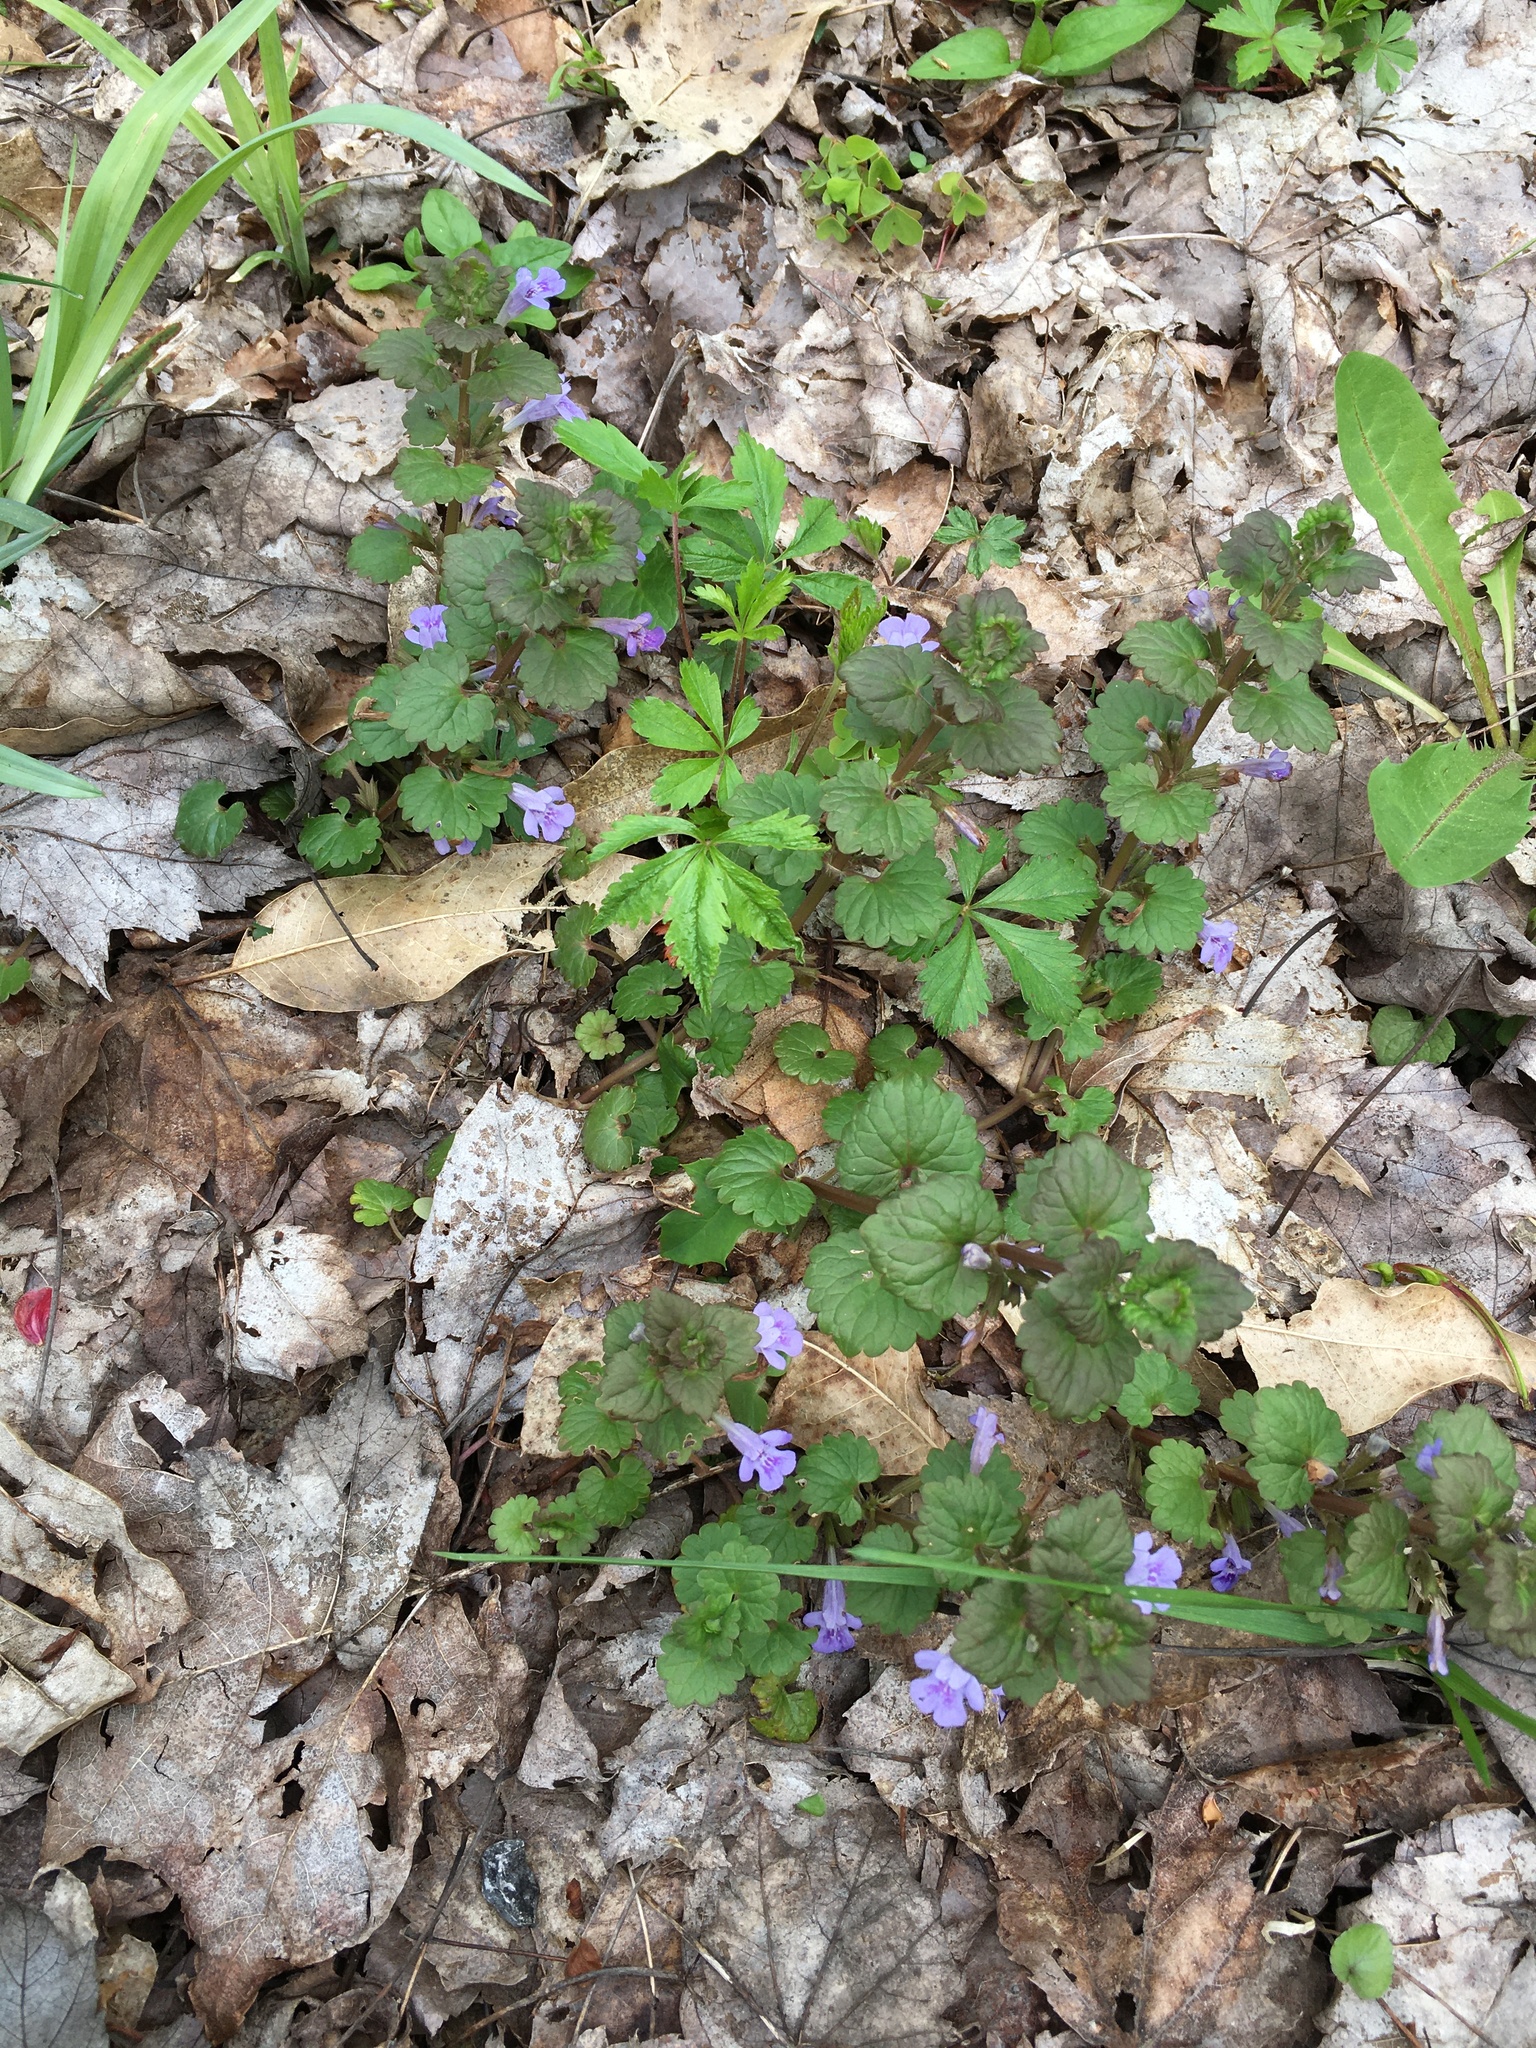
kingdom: Plantae
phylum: Tracheophyta
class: Magnoliopsida
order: Lamiales
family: Lamiaceae
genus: Glechoma
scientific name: Glechoma hederacea
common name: Ground ivy
